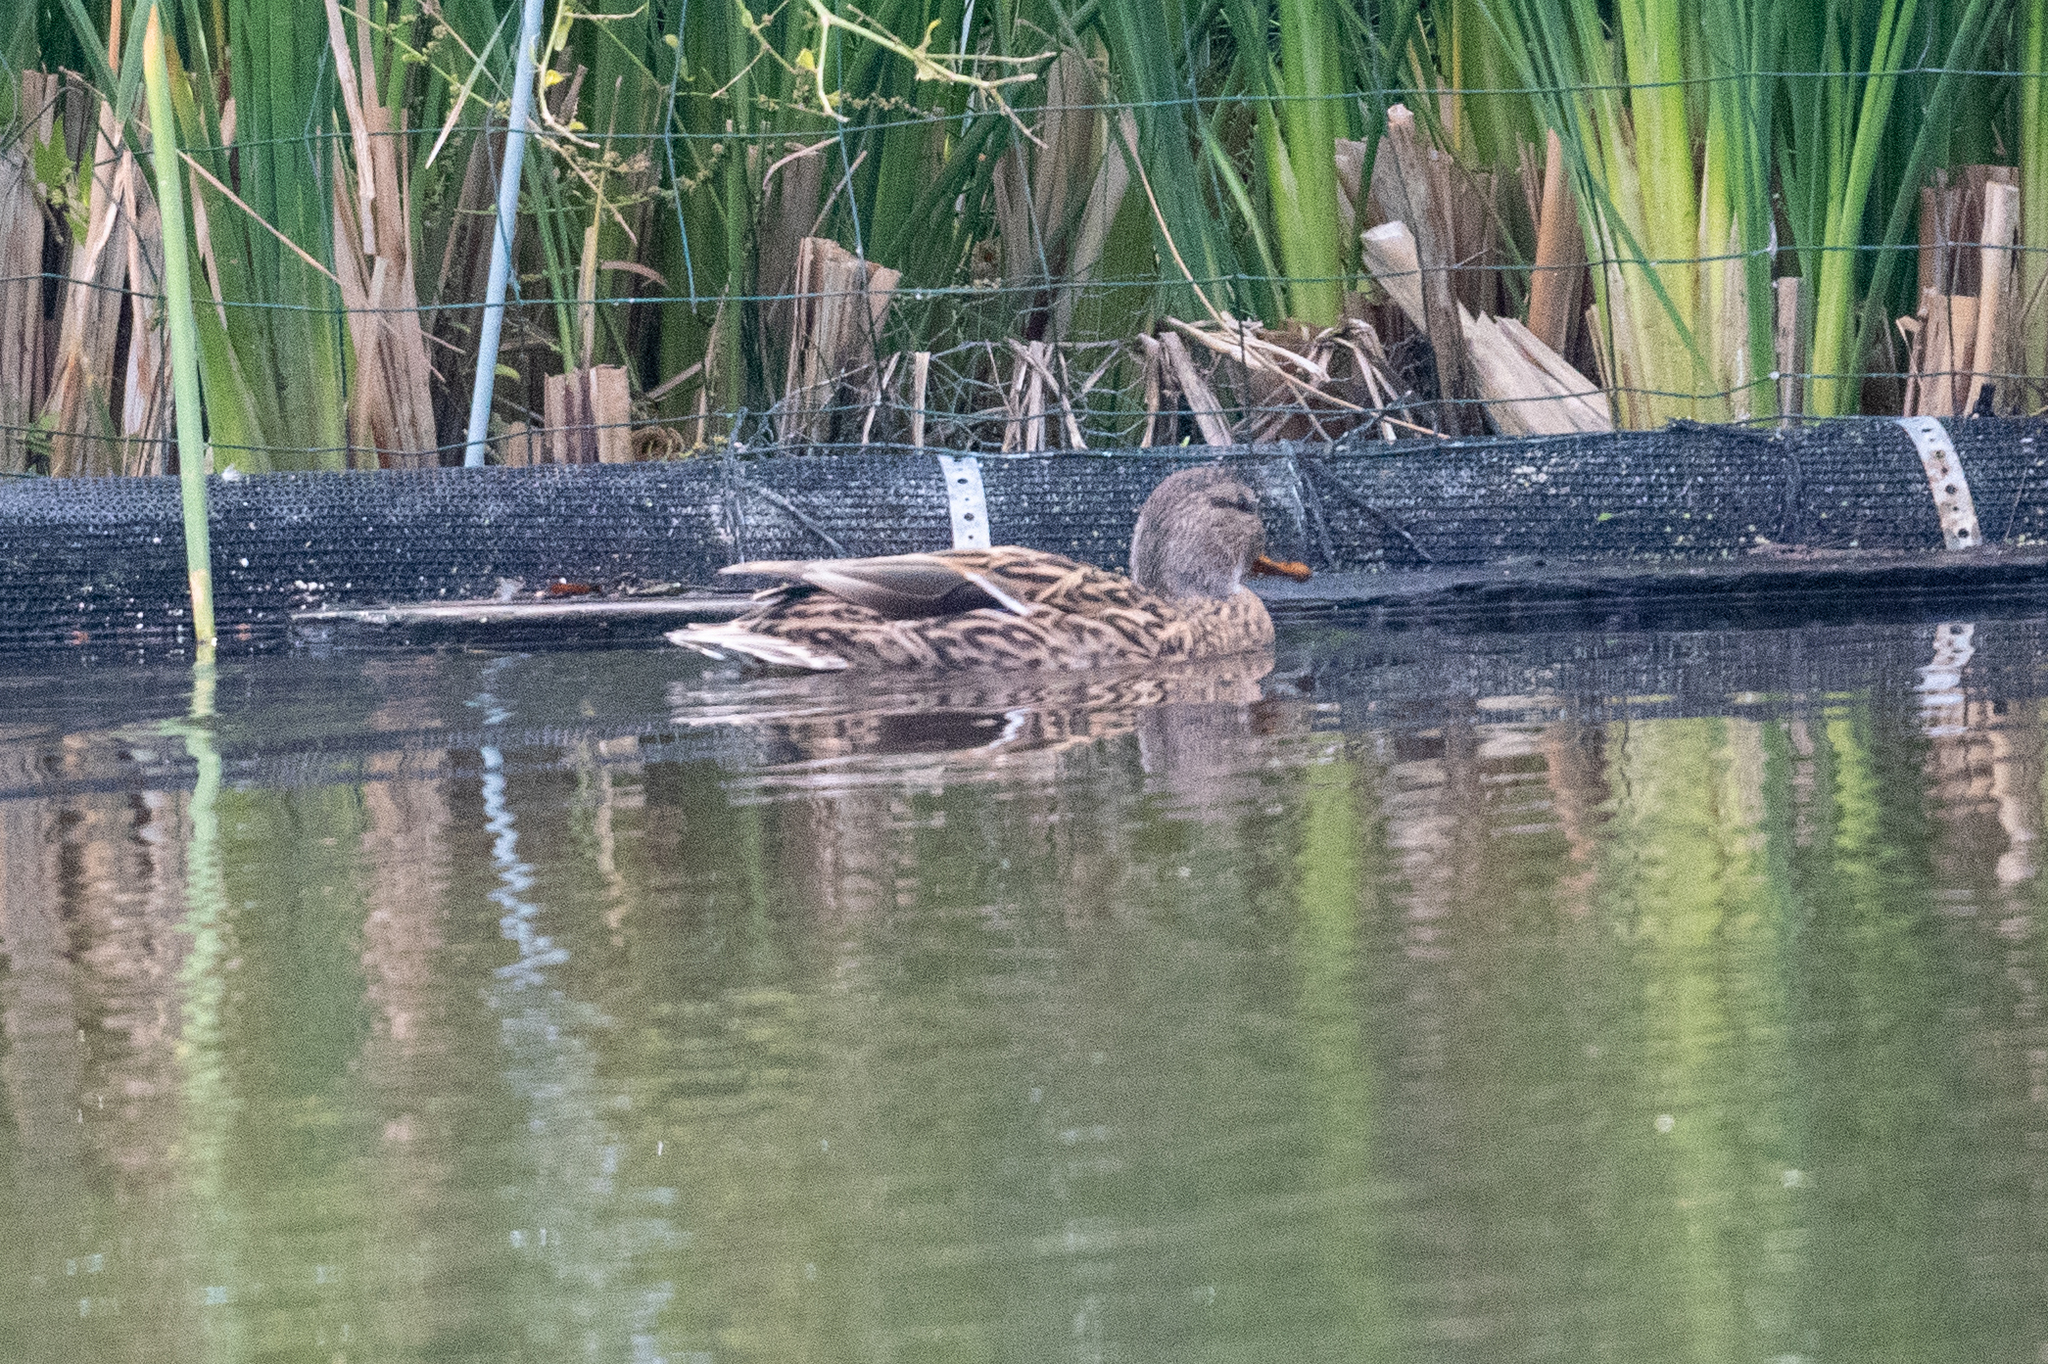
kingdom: Animalia
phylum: Chordata
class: Aves
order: Anseriformes
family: Anatidae
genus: Anas
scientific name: Anas platyrhynchos
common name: Mallard
